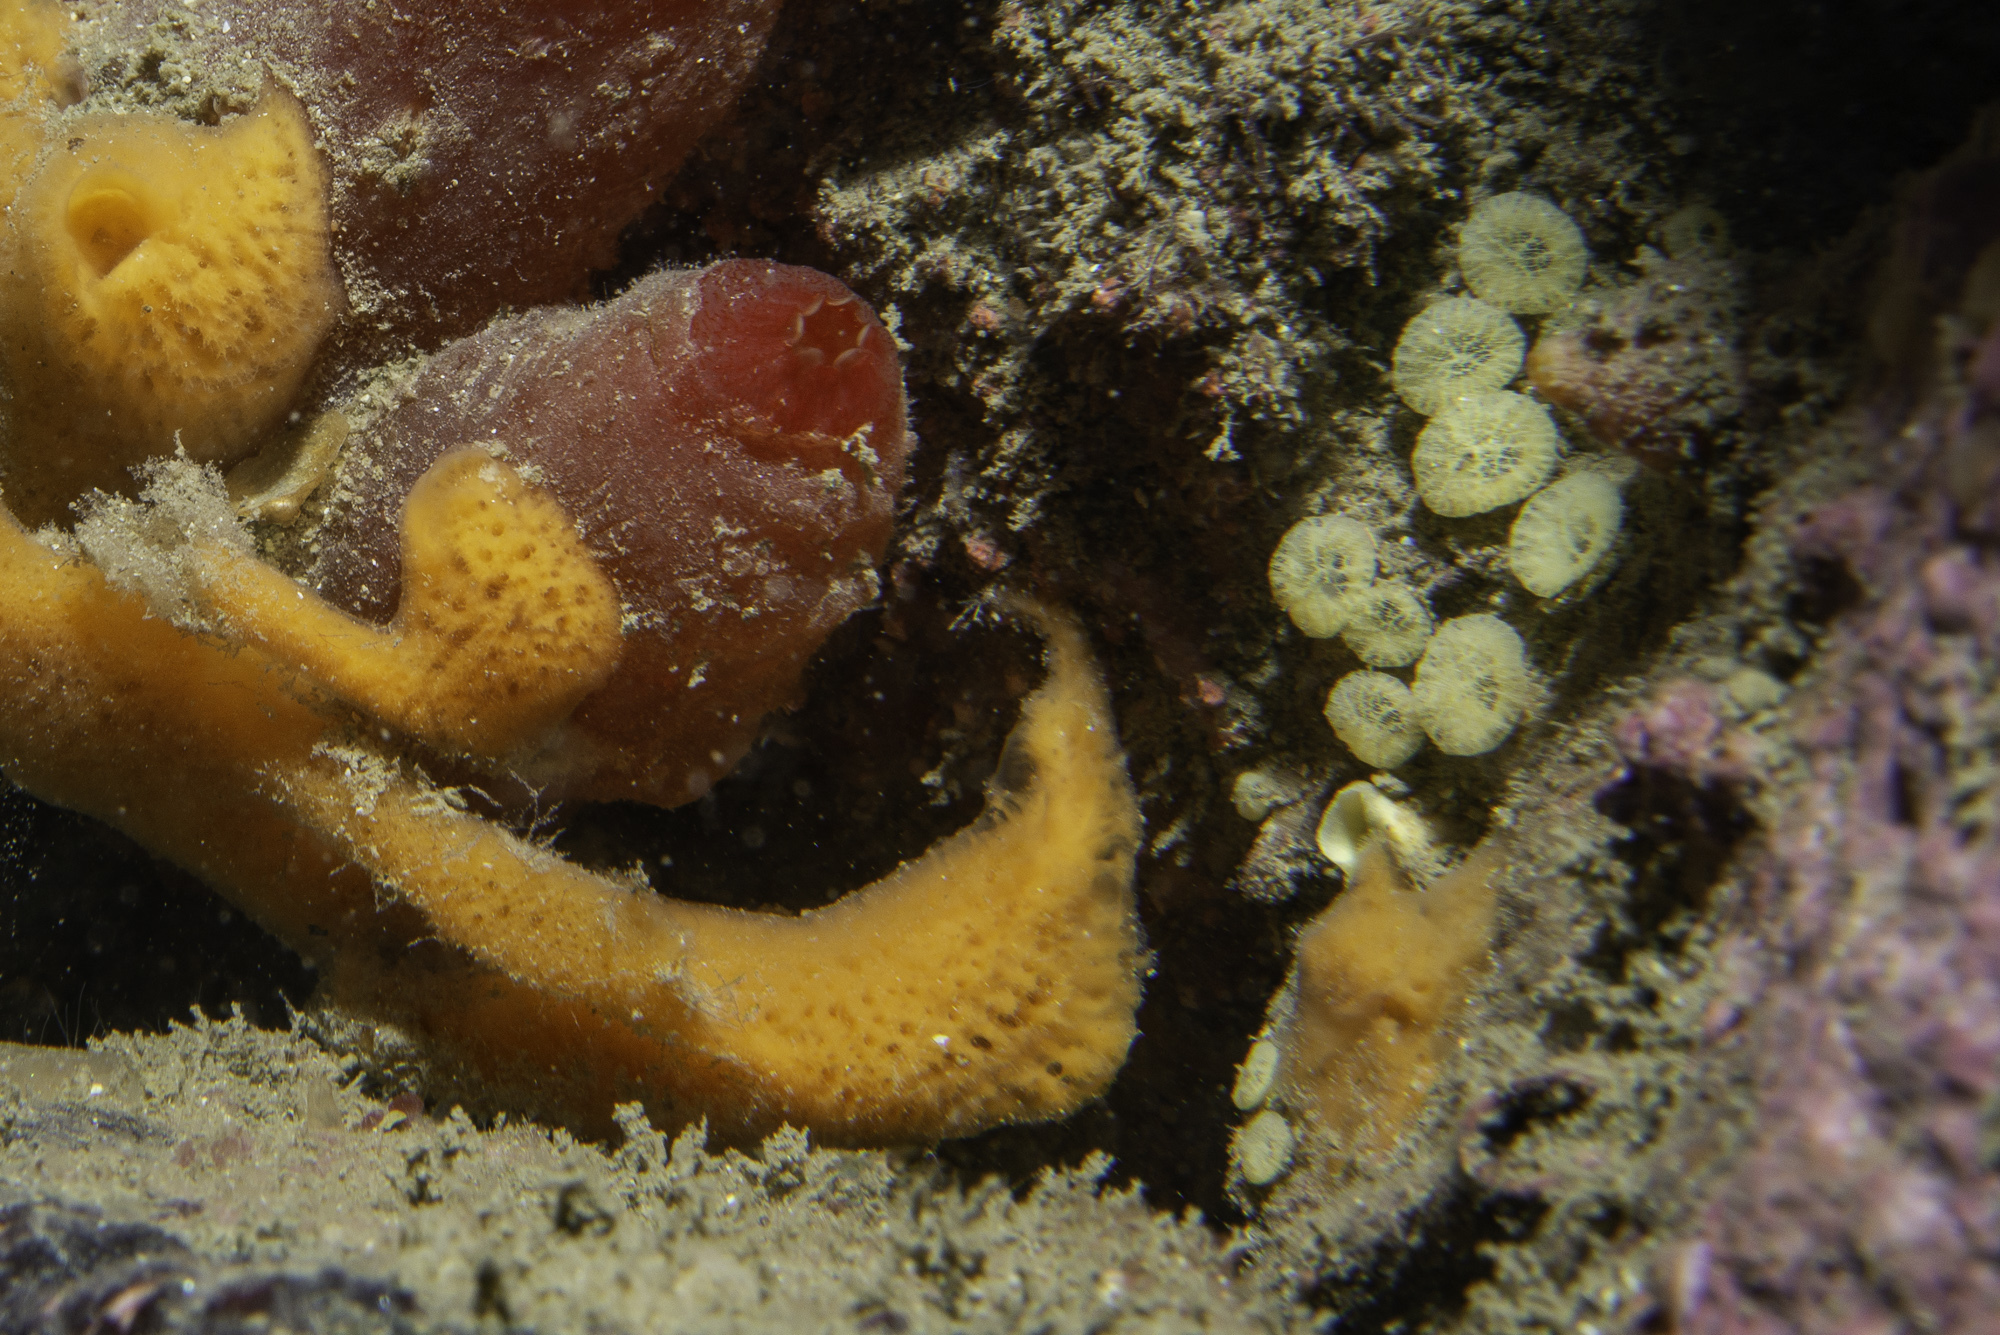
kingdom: Animalia
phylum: Porifera
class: Demospongiae
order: Clionaida
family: Clionaidae
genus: Cliona
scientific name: Cliona celata
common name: Boring sponge
